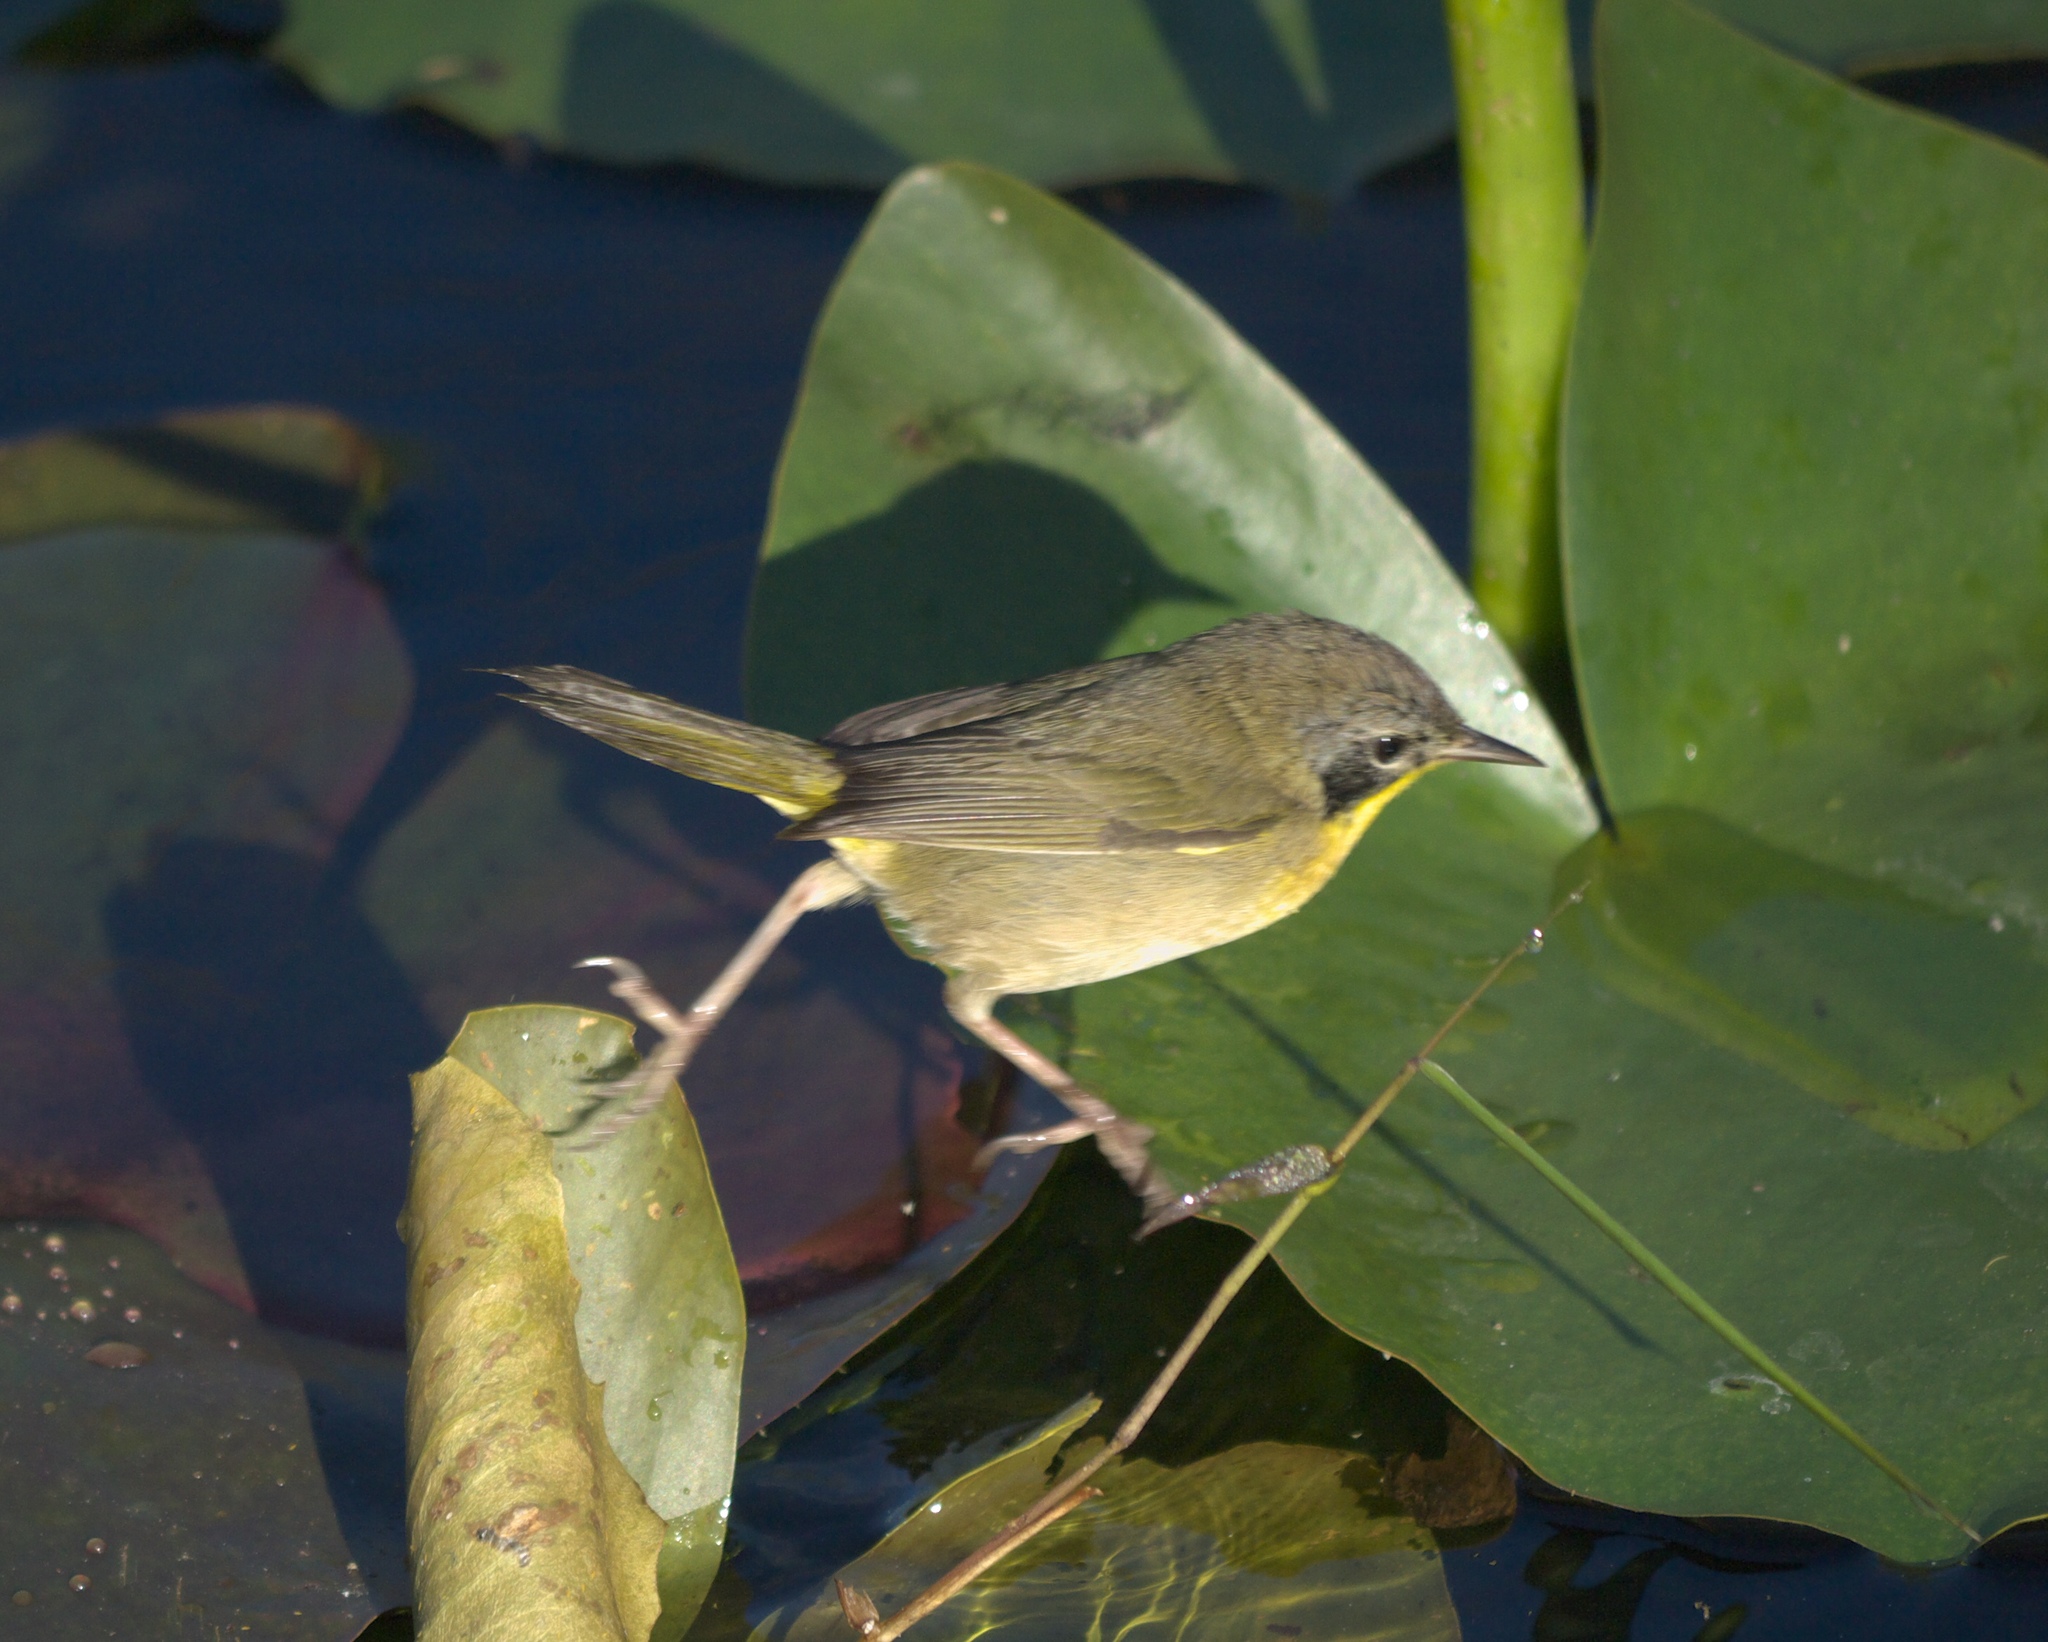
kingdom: Animalia
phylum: Chordata
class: Aves
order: Passeriformes
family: Parulidae
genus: Geothlypis
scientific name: Geothlypis trichas
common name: Common yellowthroat
